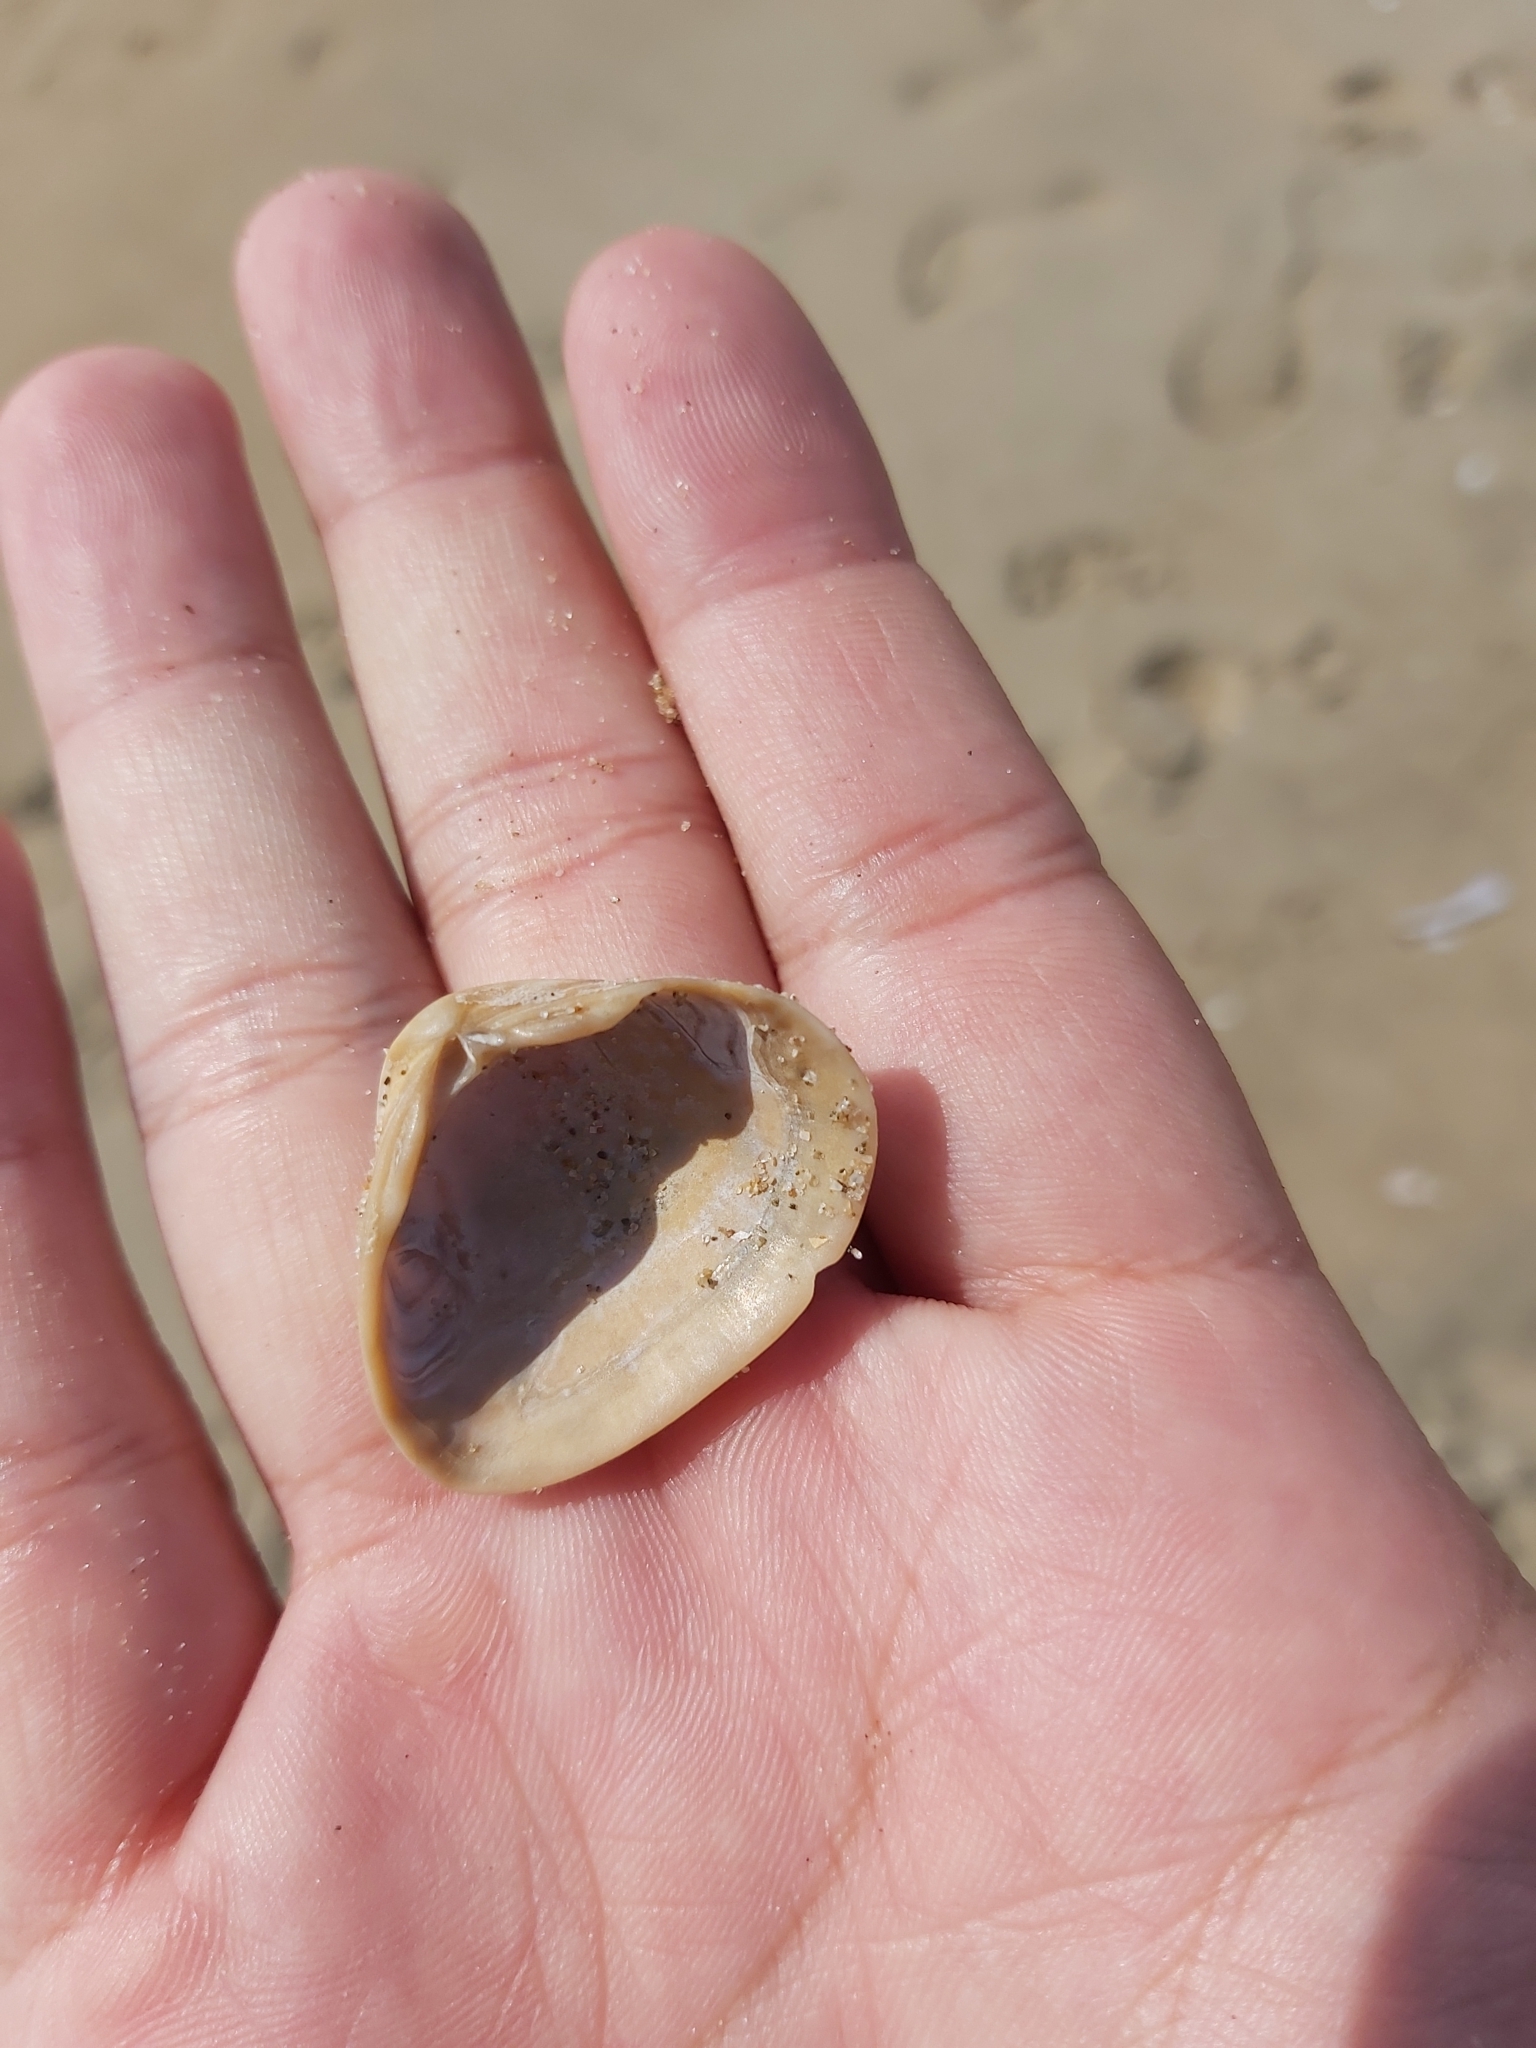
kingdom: Animalia
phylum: Mollusca
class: Bivalvia
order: Venerida
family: Mactridae
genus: Spisula
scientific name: Spisula subtruncata
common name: Cut trough shell
